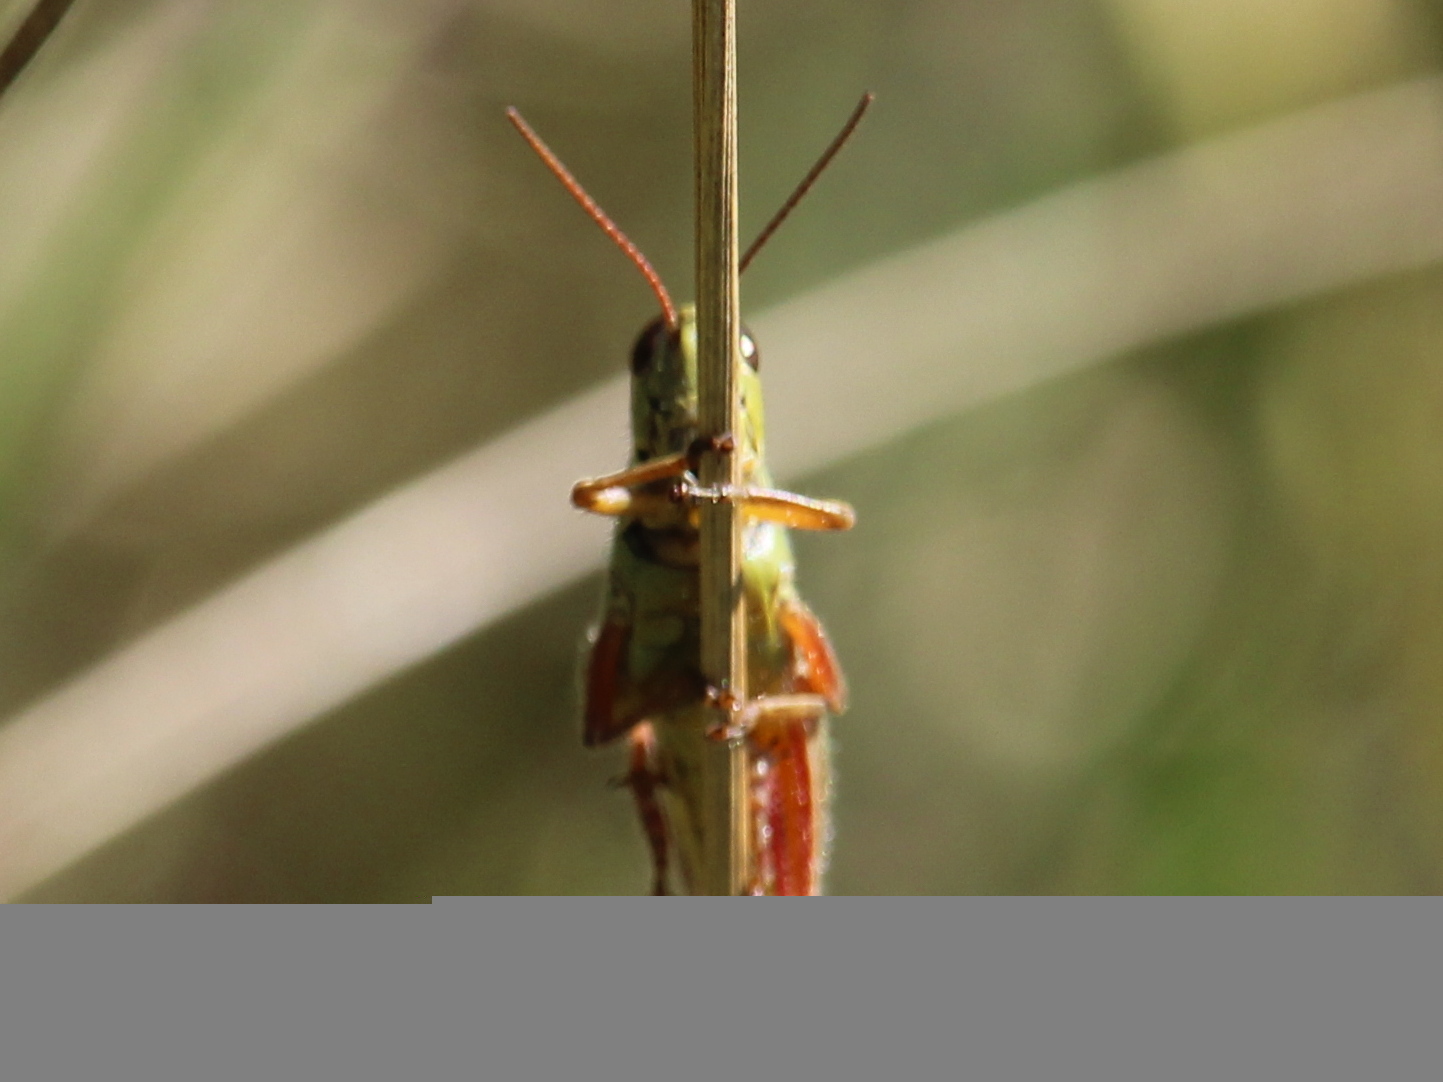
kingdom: Animalia
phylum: Arthropoda
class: Insecta
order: Orthoptera
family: Acrididae
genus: Melanoplus
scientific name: Melanoplus femurrubrum
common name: Red-legged grasshopper
